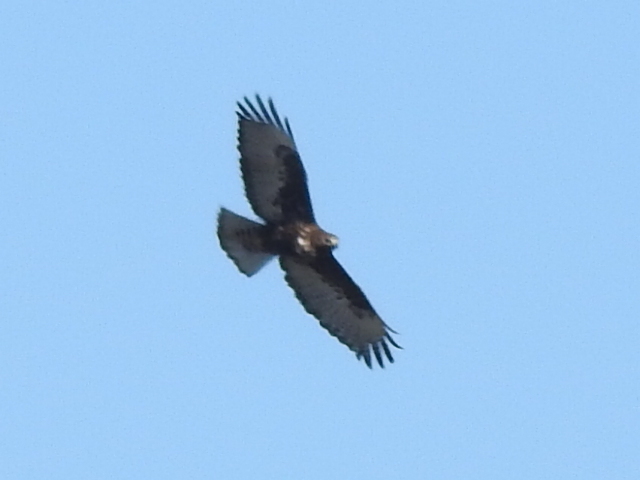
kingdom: Animalia
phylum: Chordata
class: Aves
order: Accipitriformes
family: Accipitridae
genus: Buteo
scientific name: Buteo jamaicensis
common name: Red-tailed hawk
